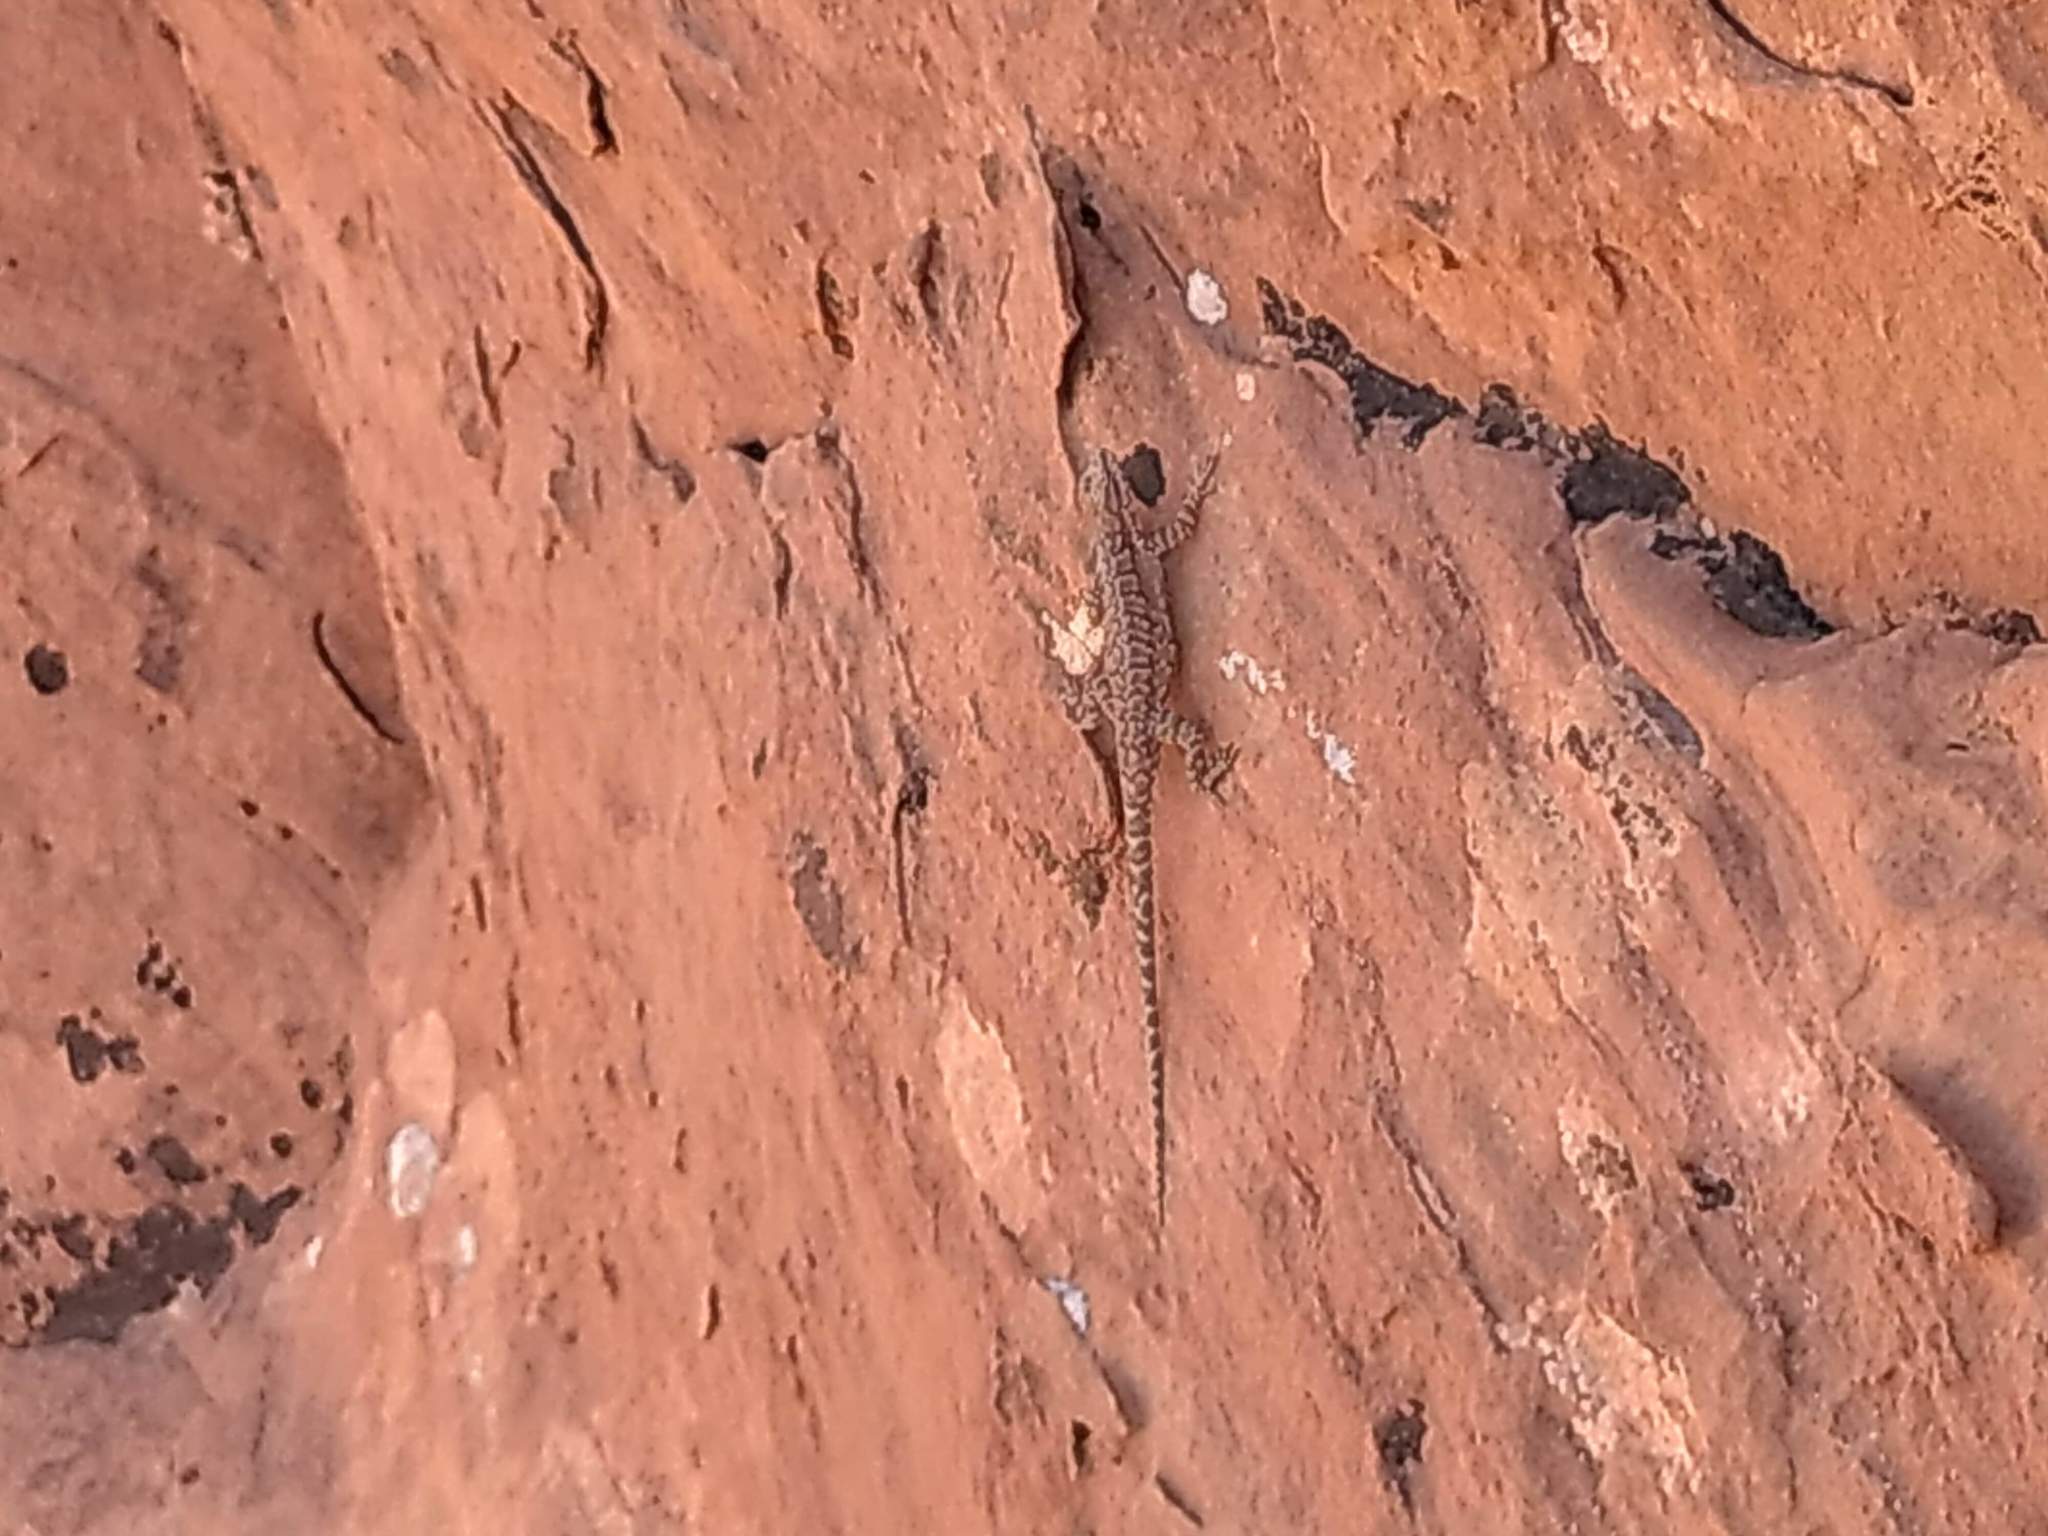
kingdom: Animalia
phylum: Chordata
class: Squamata
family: Phrynosomatidae
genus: Urosaurus
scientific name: Urosaurus ornatus
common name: Ornate tree lizard
